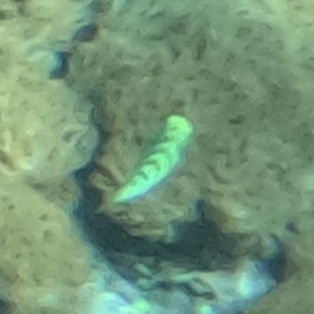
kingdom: Animalia
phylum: Chordata
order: Perciformes
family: Labridae
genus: Thalassoma
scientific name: Thalassoma hardwicke
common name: Sixbar wrasse
